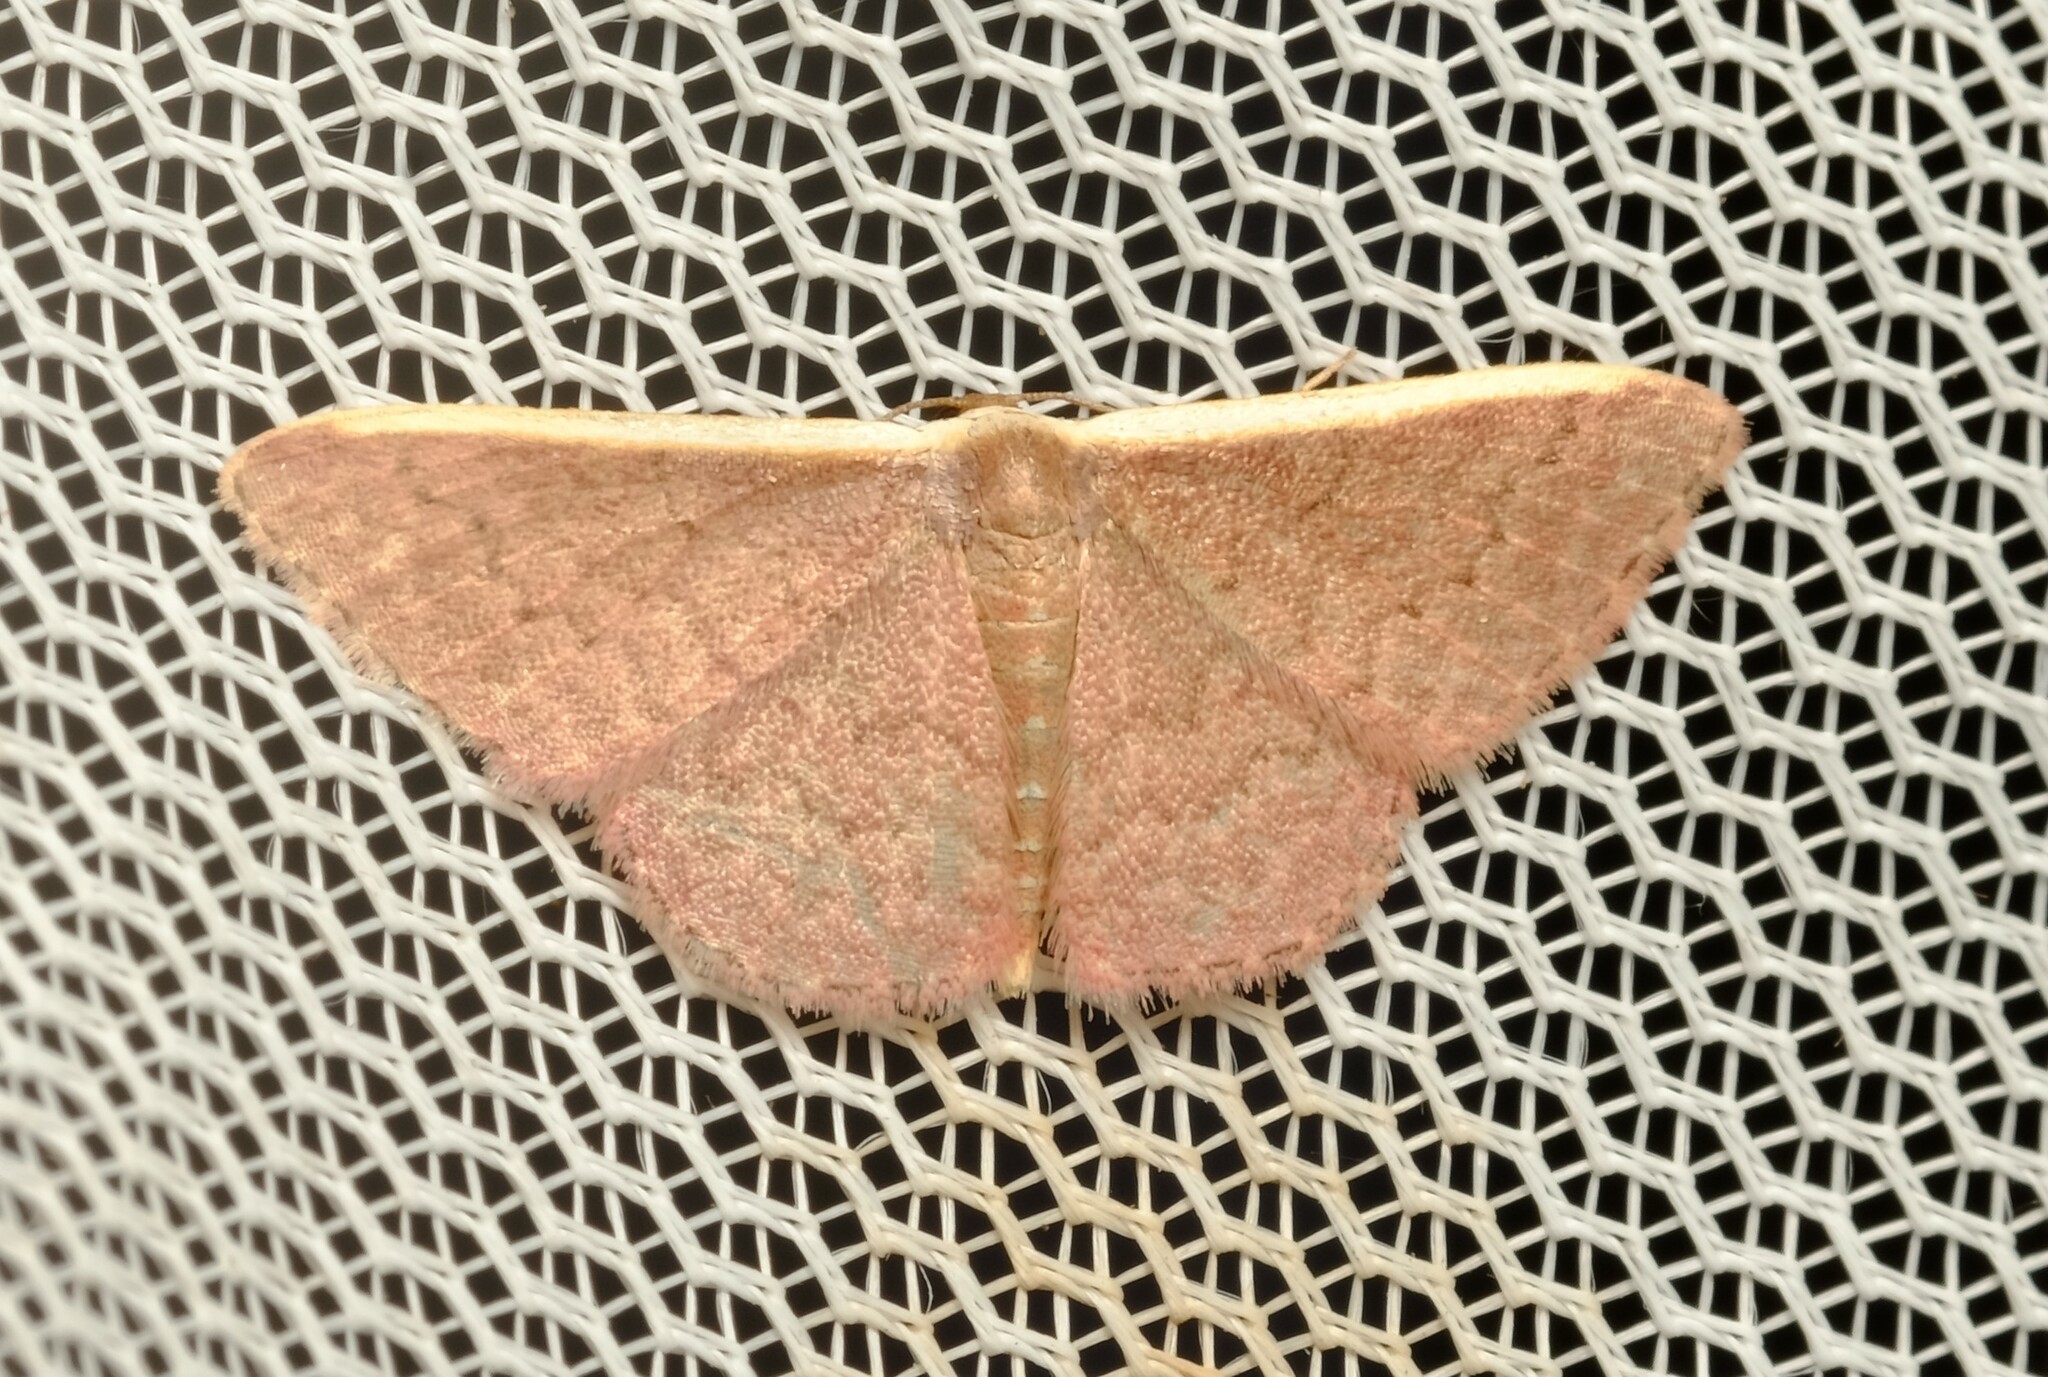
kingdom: Animalia
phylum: Arthropoda
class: Insecta
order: Lepidoptera
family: Geometridae
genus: Idaea
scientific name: Idaea inversata
